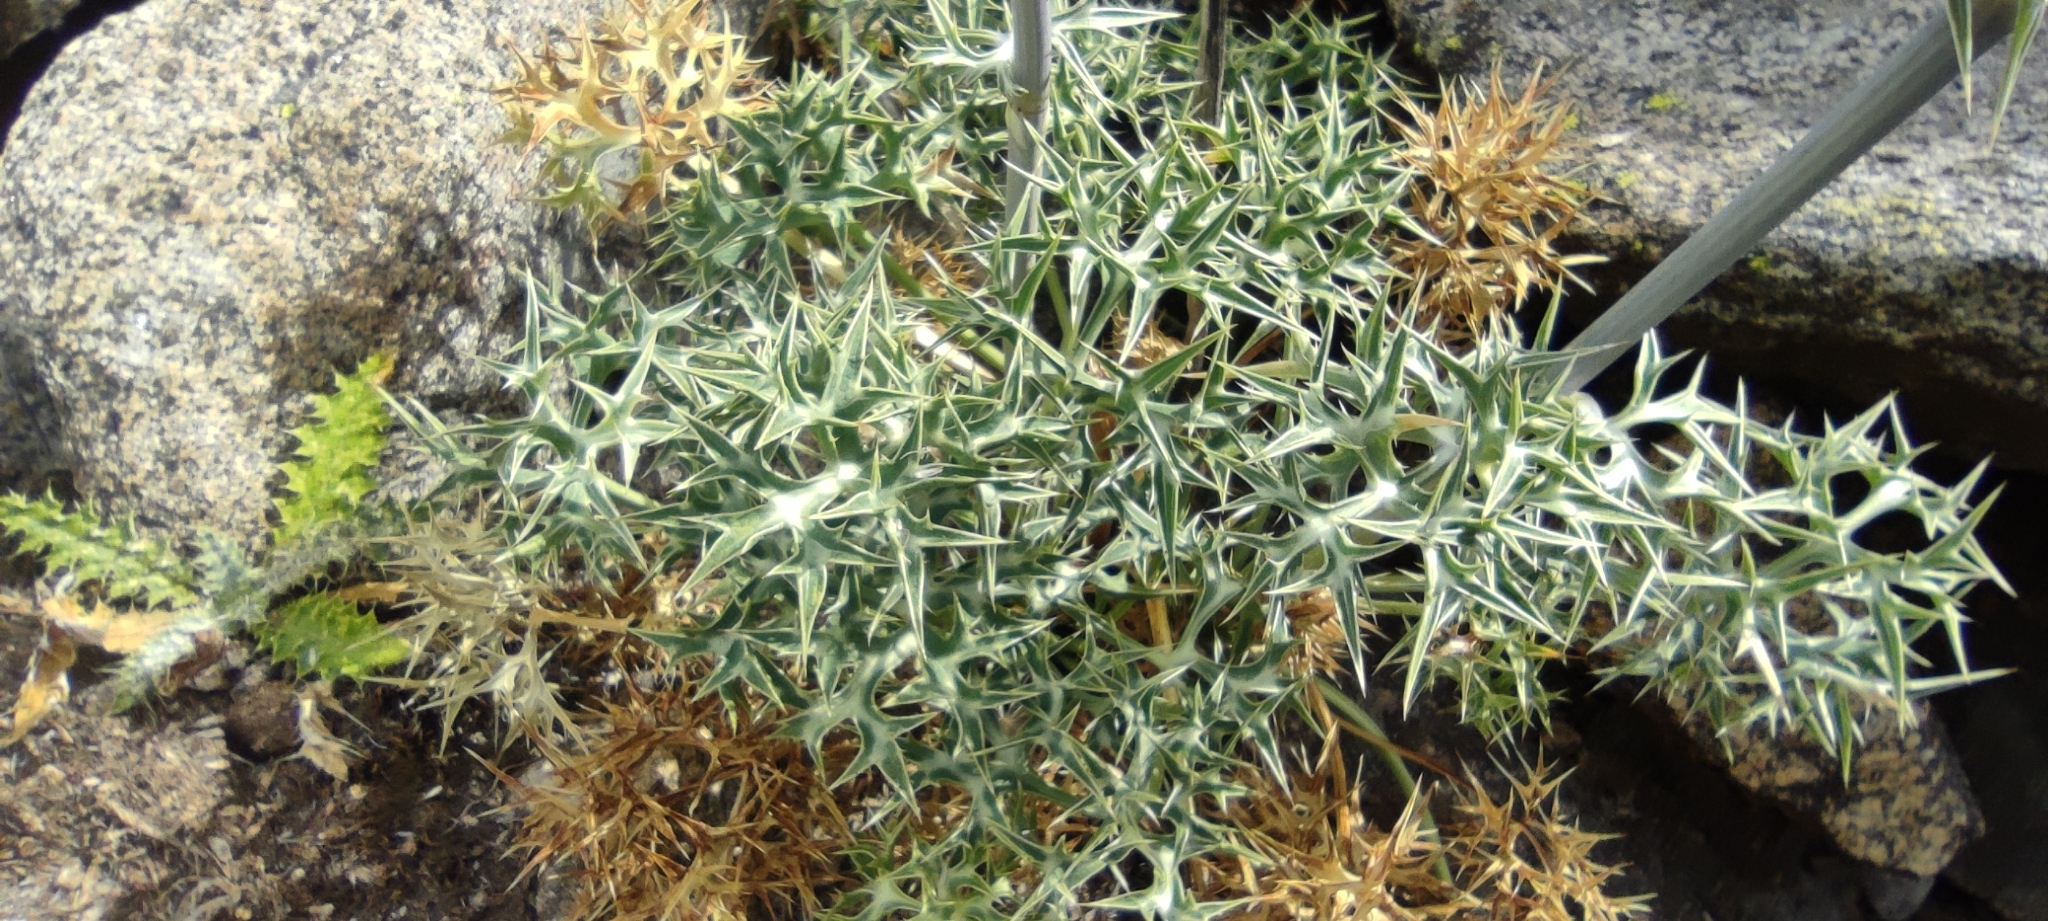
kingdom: Plantae
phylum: Tracheophyta
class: Magnoliopsida
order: Apiales
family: Apiaceae
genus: Eryngium
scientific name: Eryngium bourgatii
